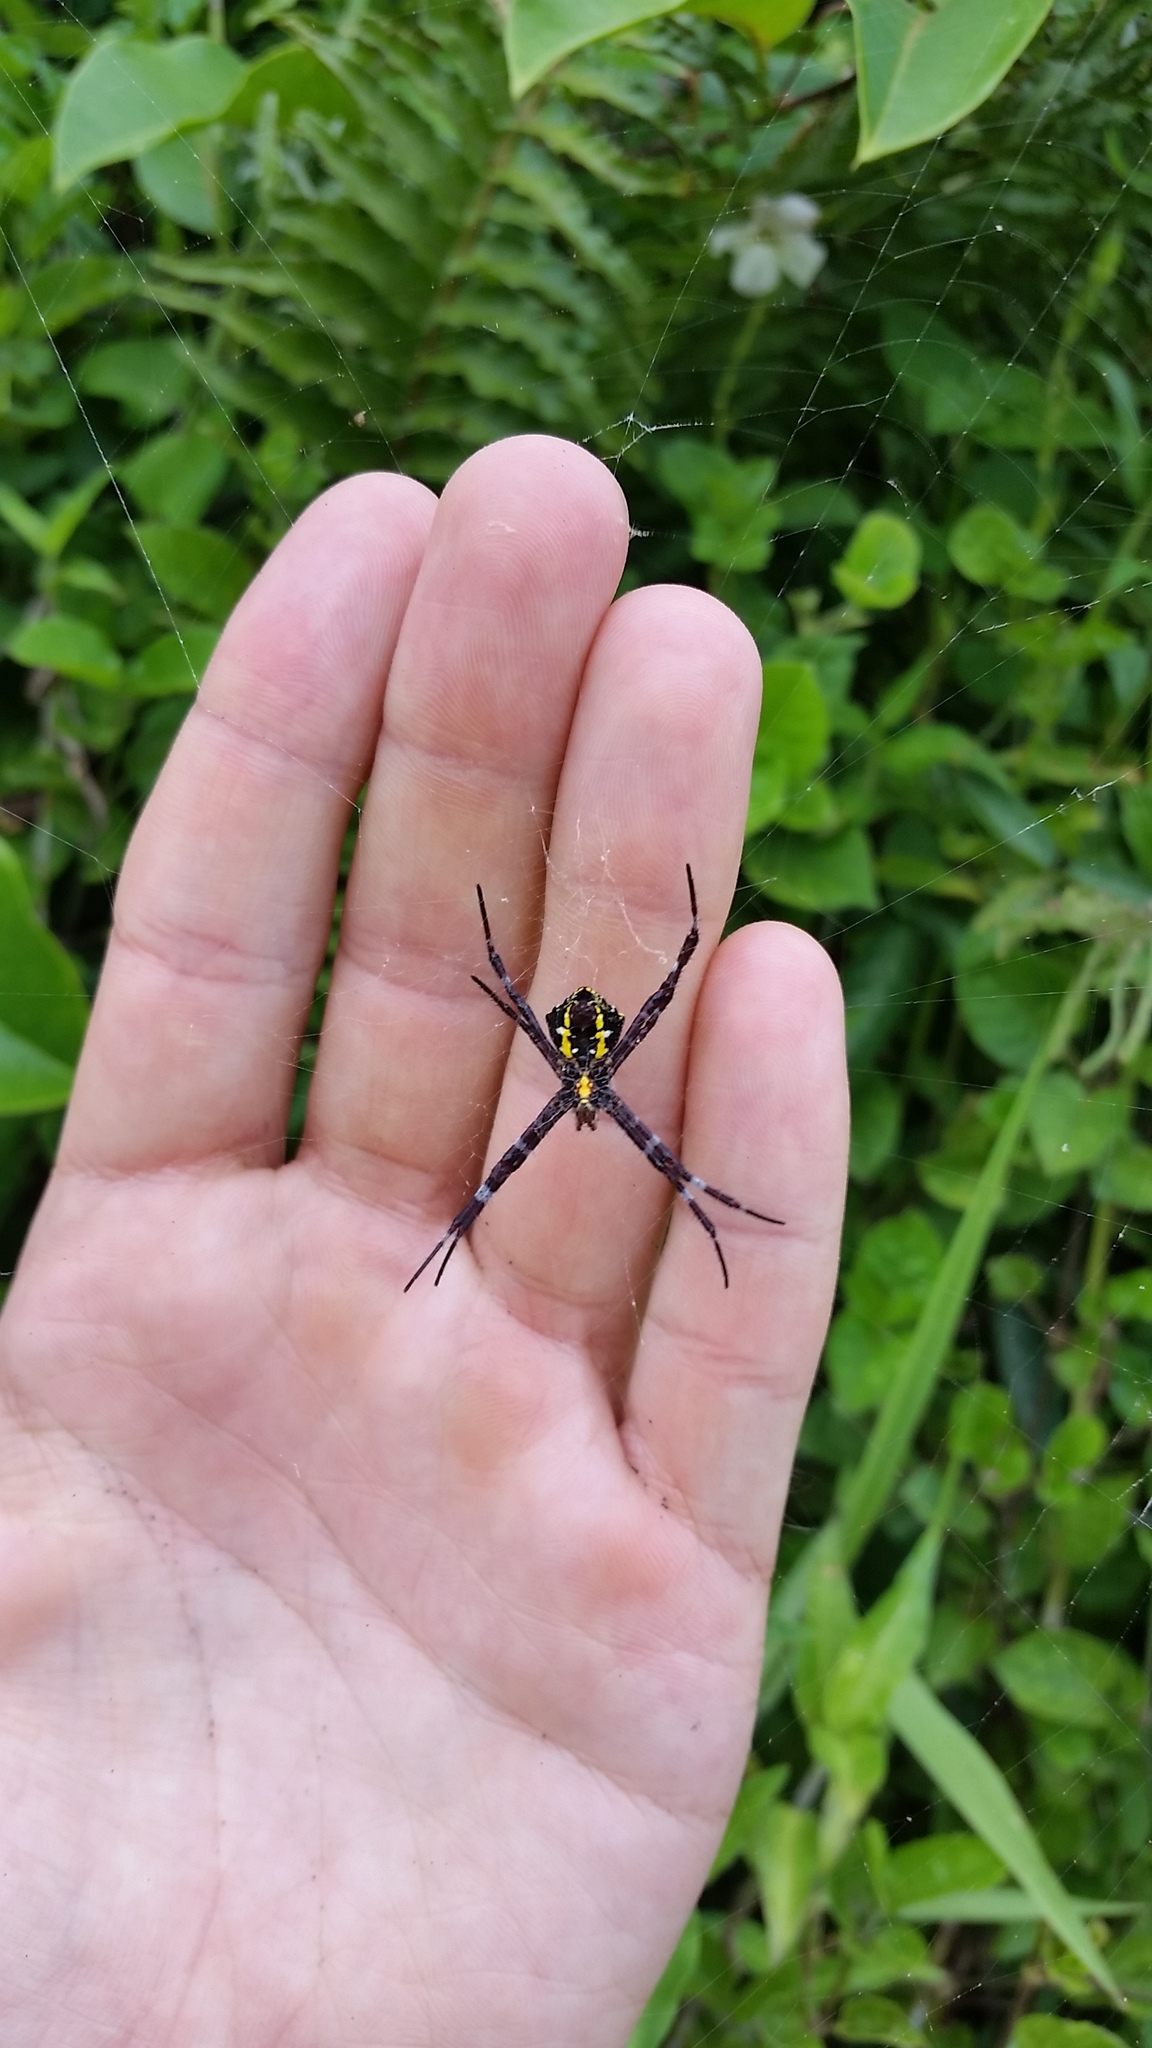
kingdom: Animalia
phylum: Arthropoda
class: Arachnida
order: Araneae
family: Araneidae
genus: Argiope
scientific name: Argiope appensa
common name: Garden spider
